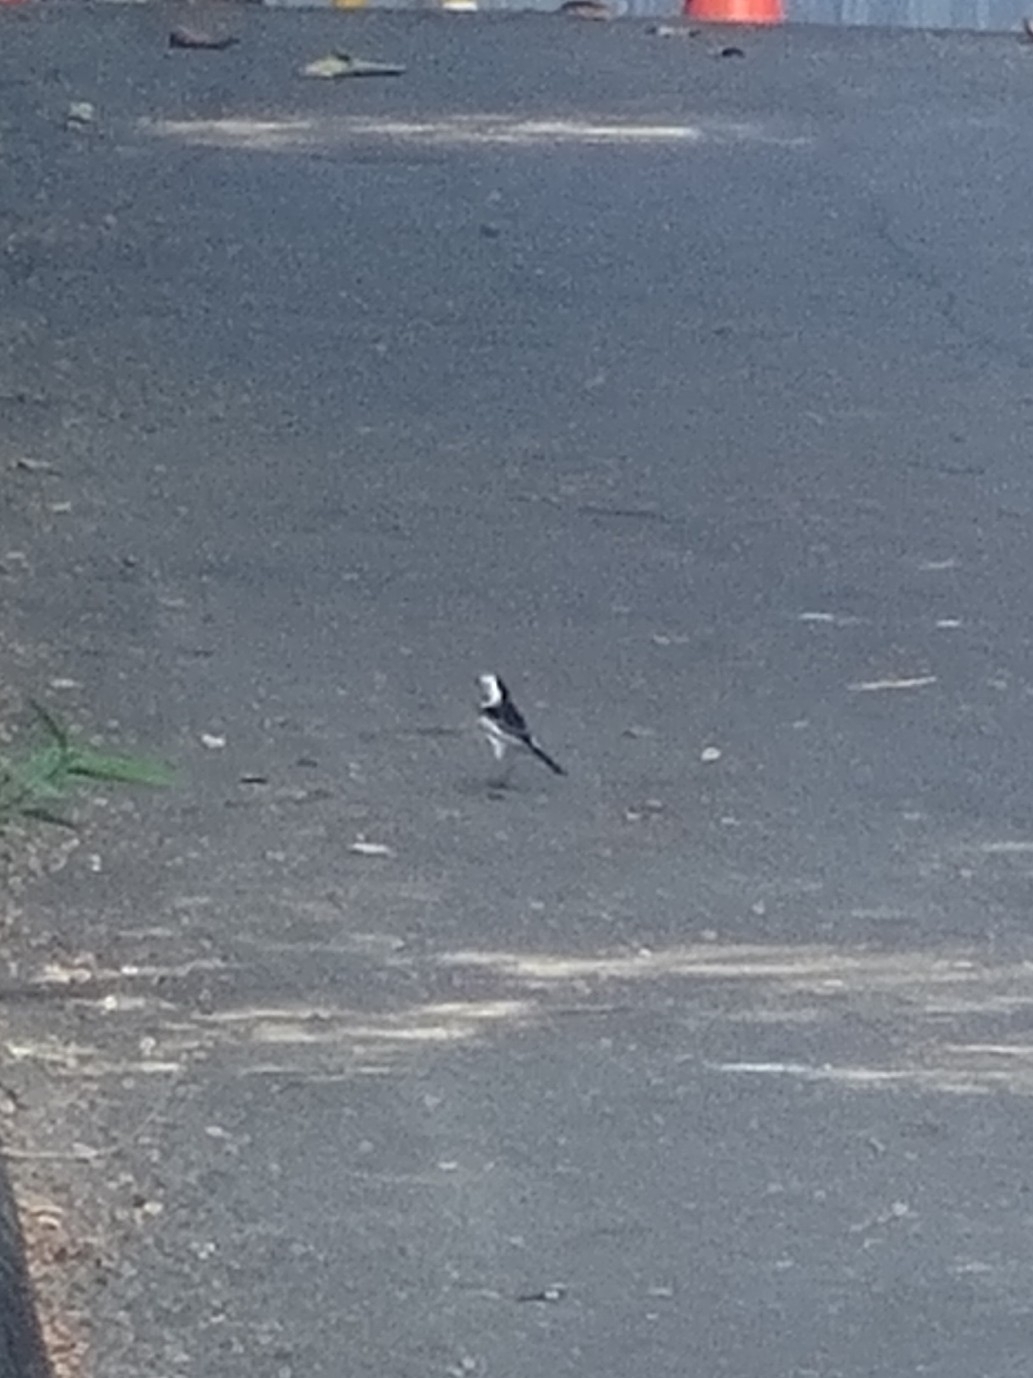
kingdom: Animalia
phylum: Chordata
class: Aves
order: Passeriformes
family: Motacillidae
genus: Motacilla
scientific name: Motacilla alba
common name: White wagtail
